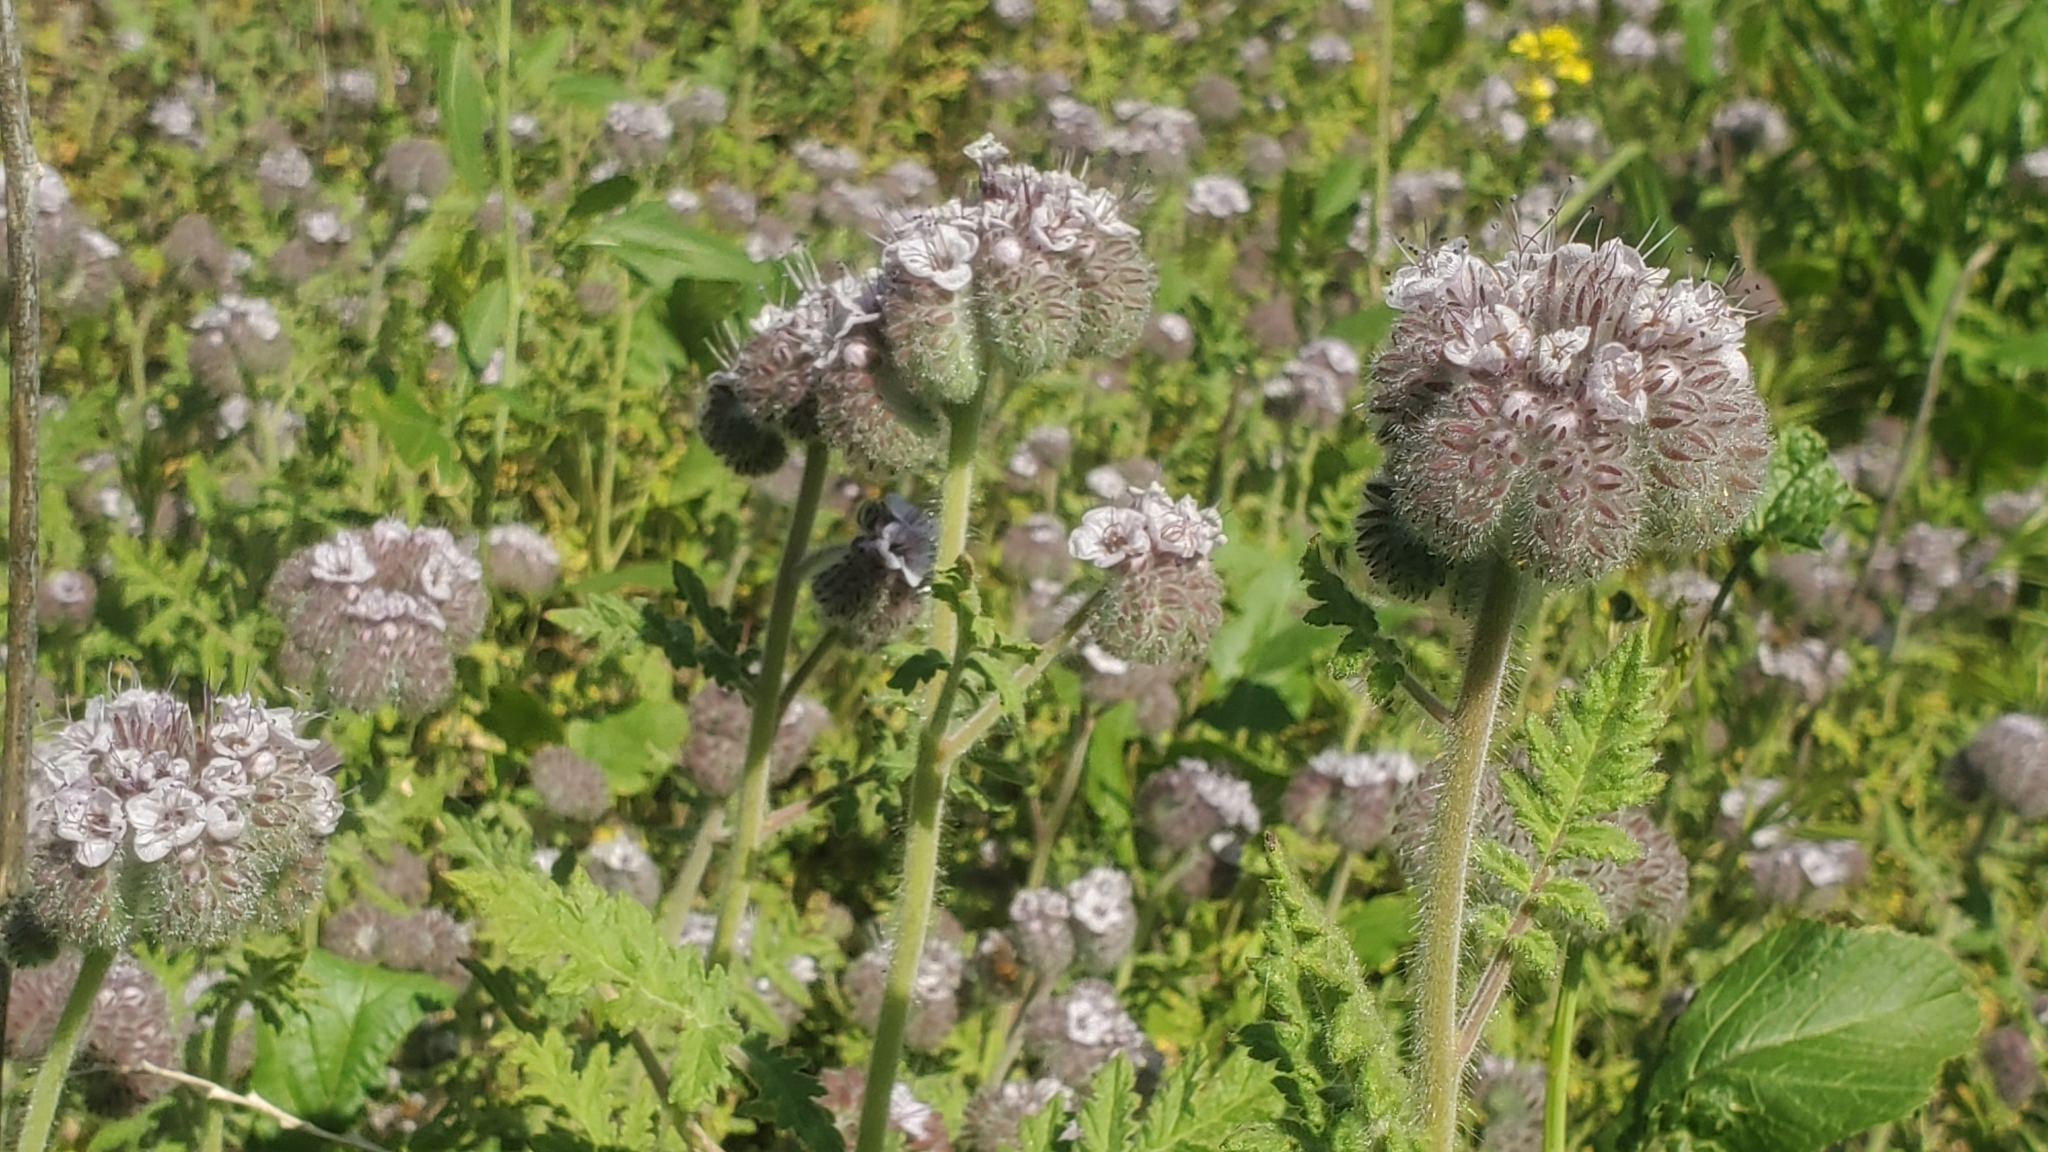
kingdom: Plantae
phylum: Tracheophyta
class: Magnoliopsida
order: Boraginales
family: Hydrophyllaceae
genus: Phacelia
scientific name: Phacelia hubbyi
